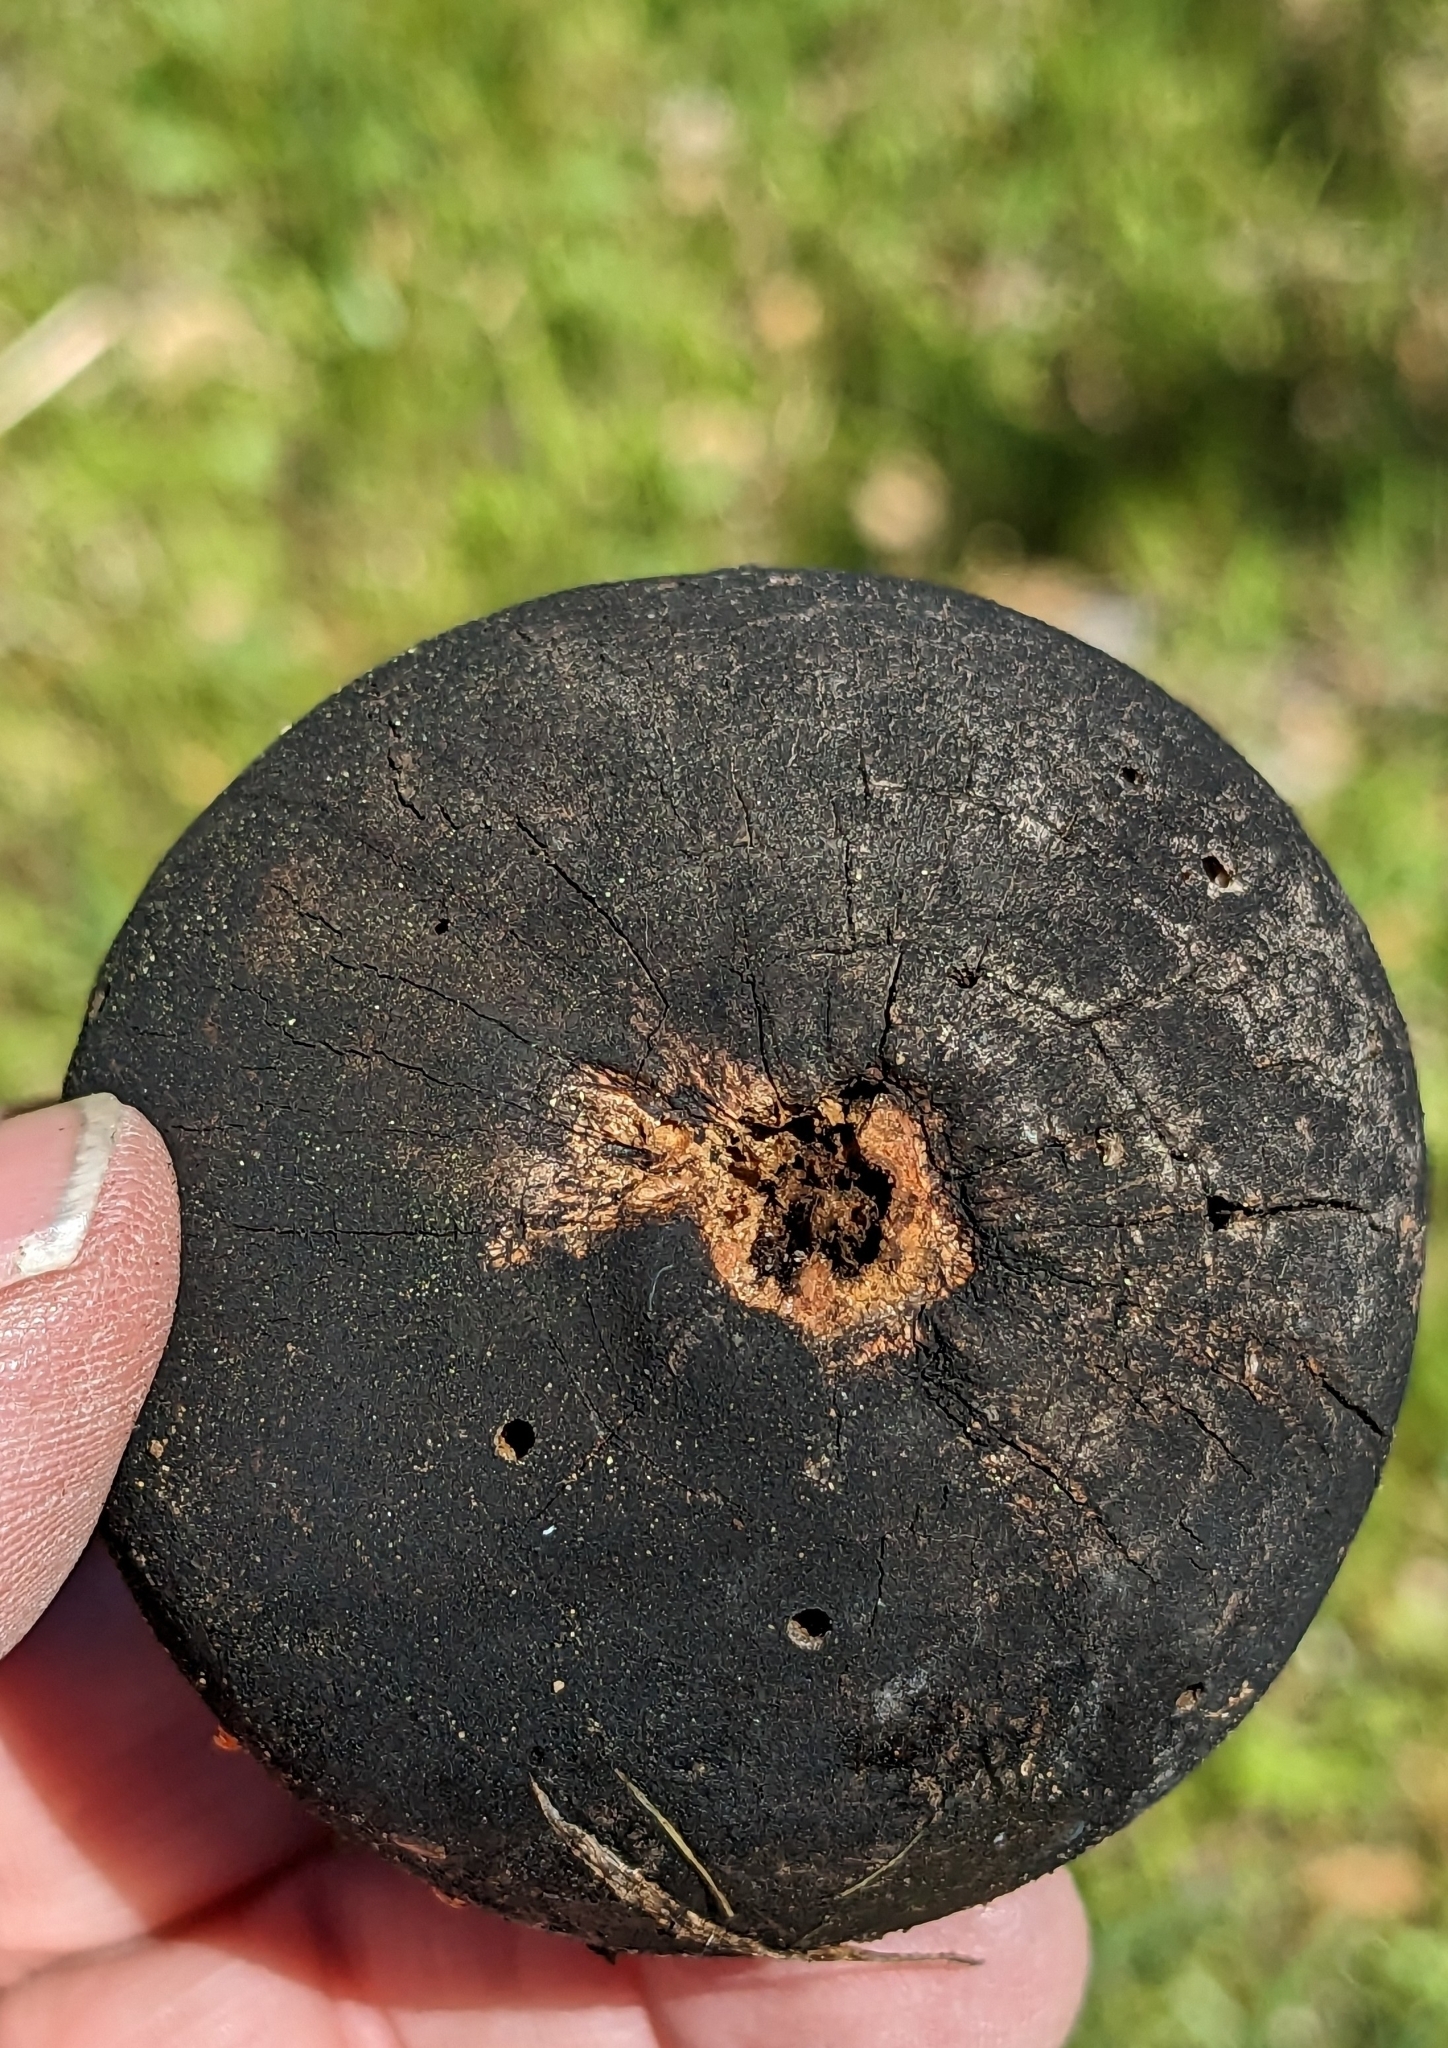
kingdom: Animalia
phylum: Arthropoda
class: Insecta
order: Hymenoptera
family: Cynipidae
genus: Andricus
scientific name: Andricus quercuscalifornicus
